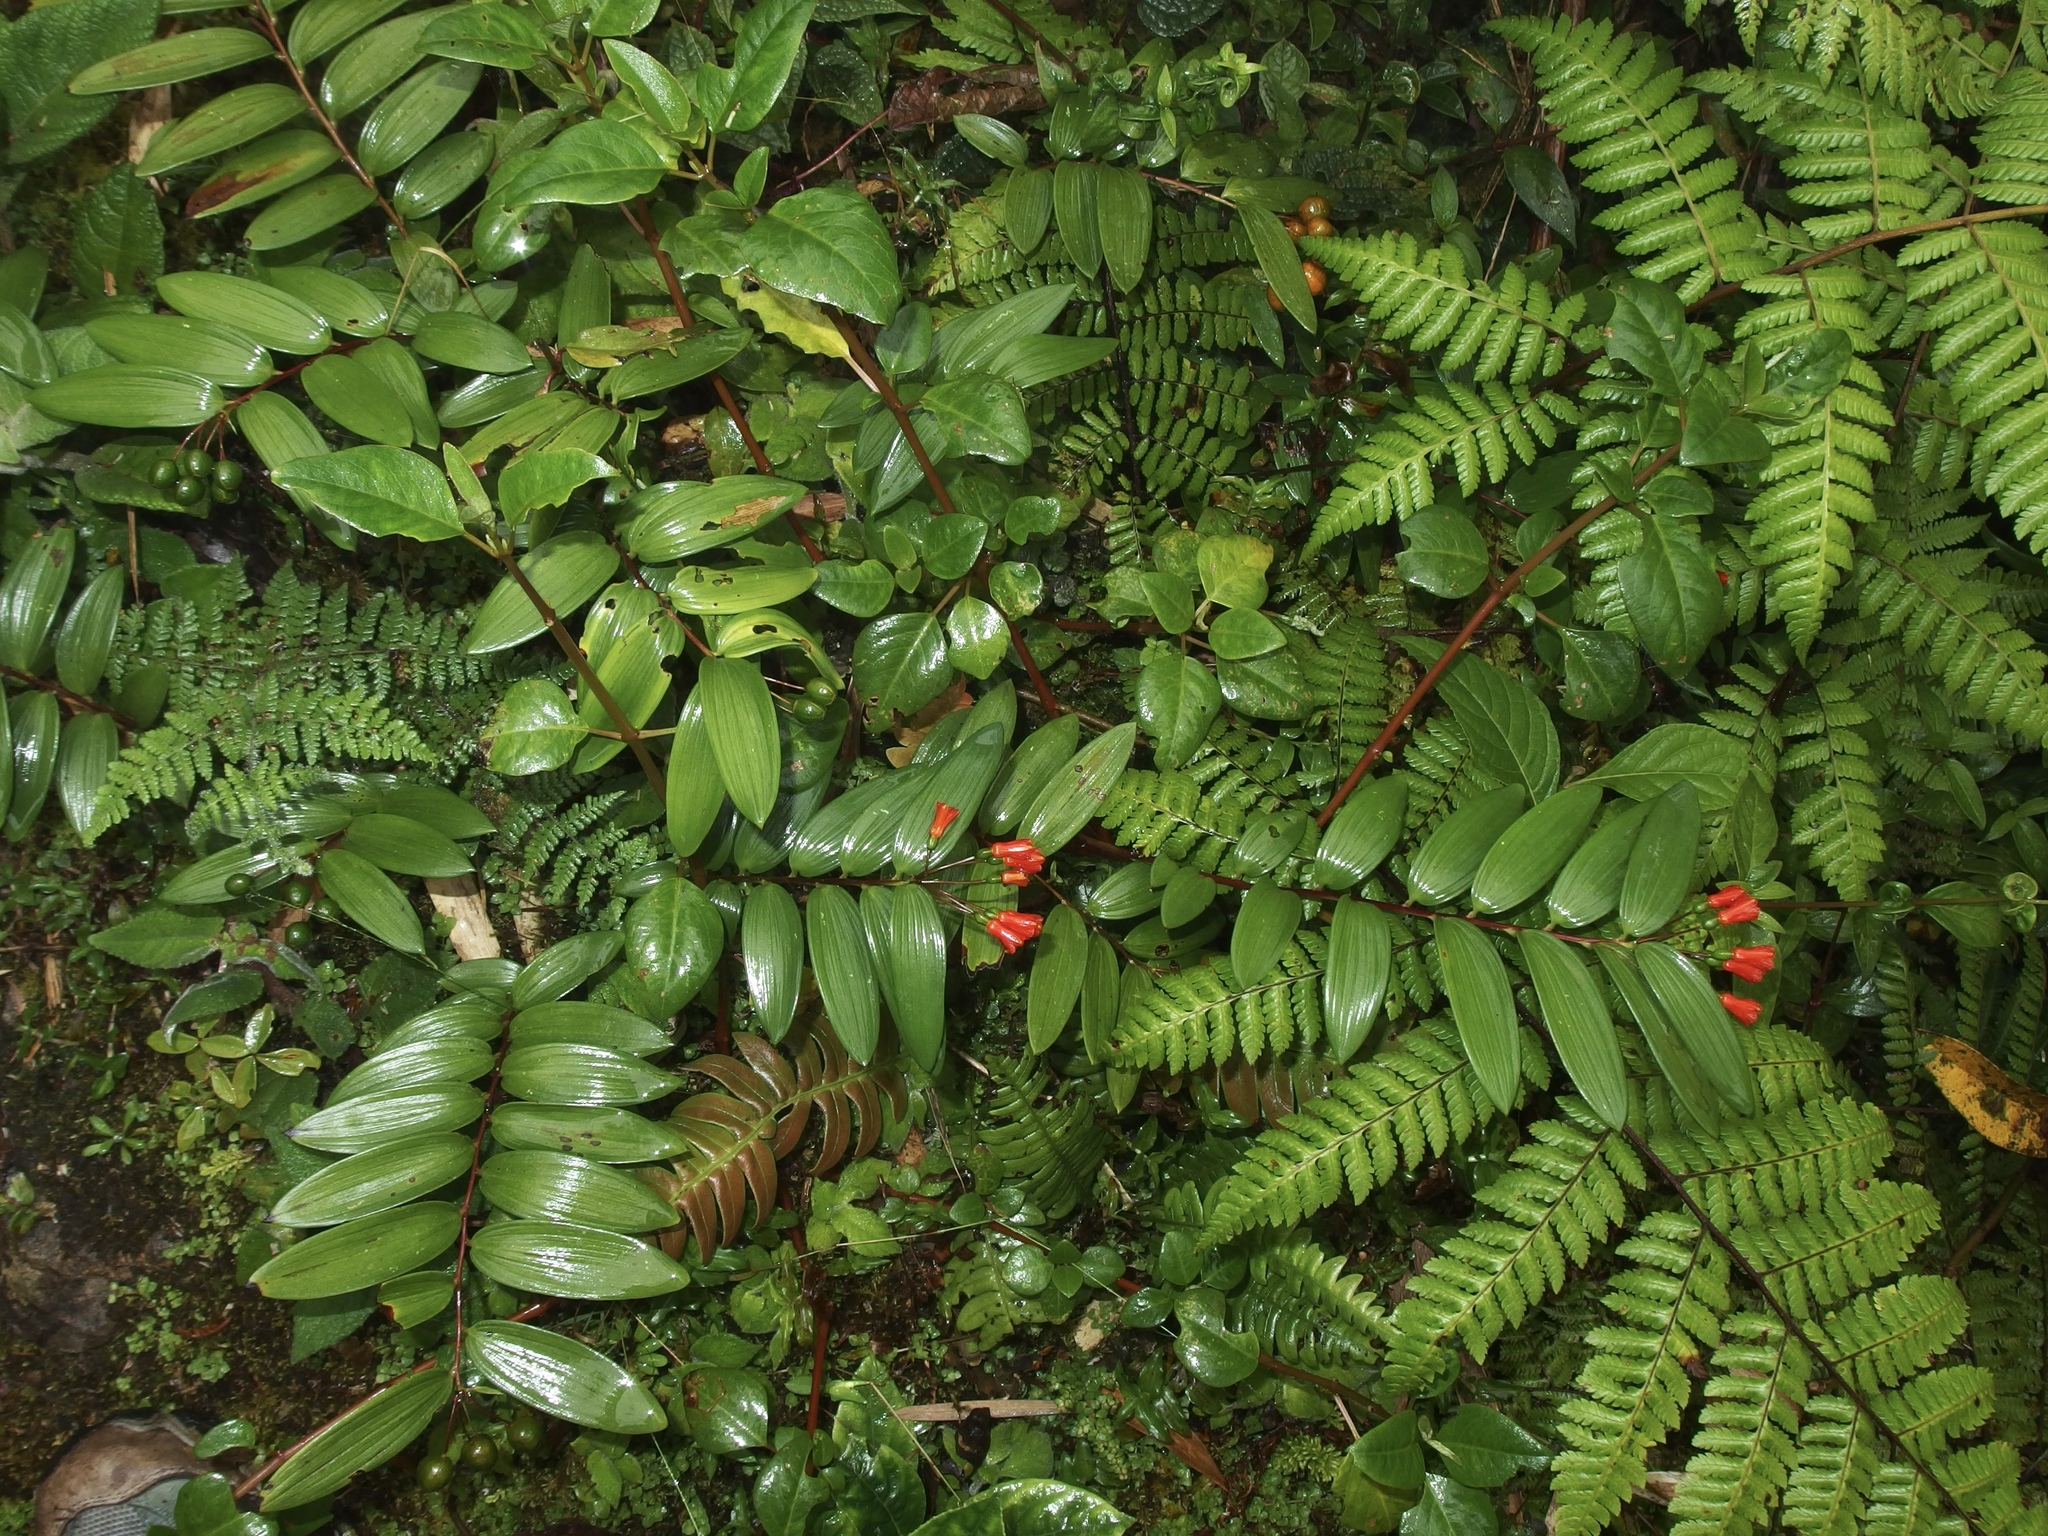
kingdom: Plantae
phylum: Tracheophyta
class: Liliopsida
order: Liliales
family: Alstroemeriaceae
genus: Bomarea
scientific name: Bomarea distichifolia
